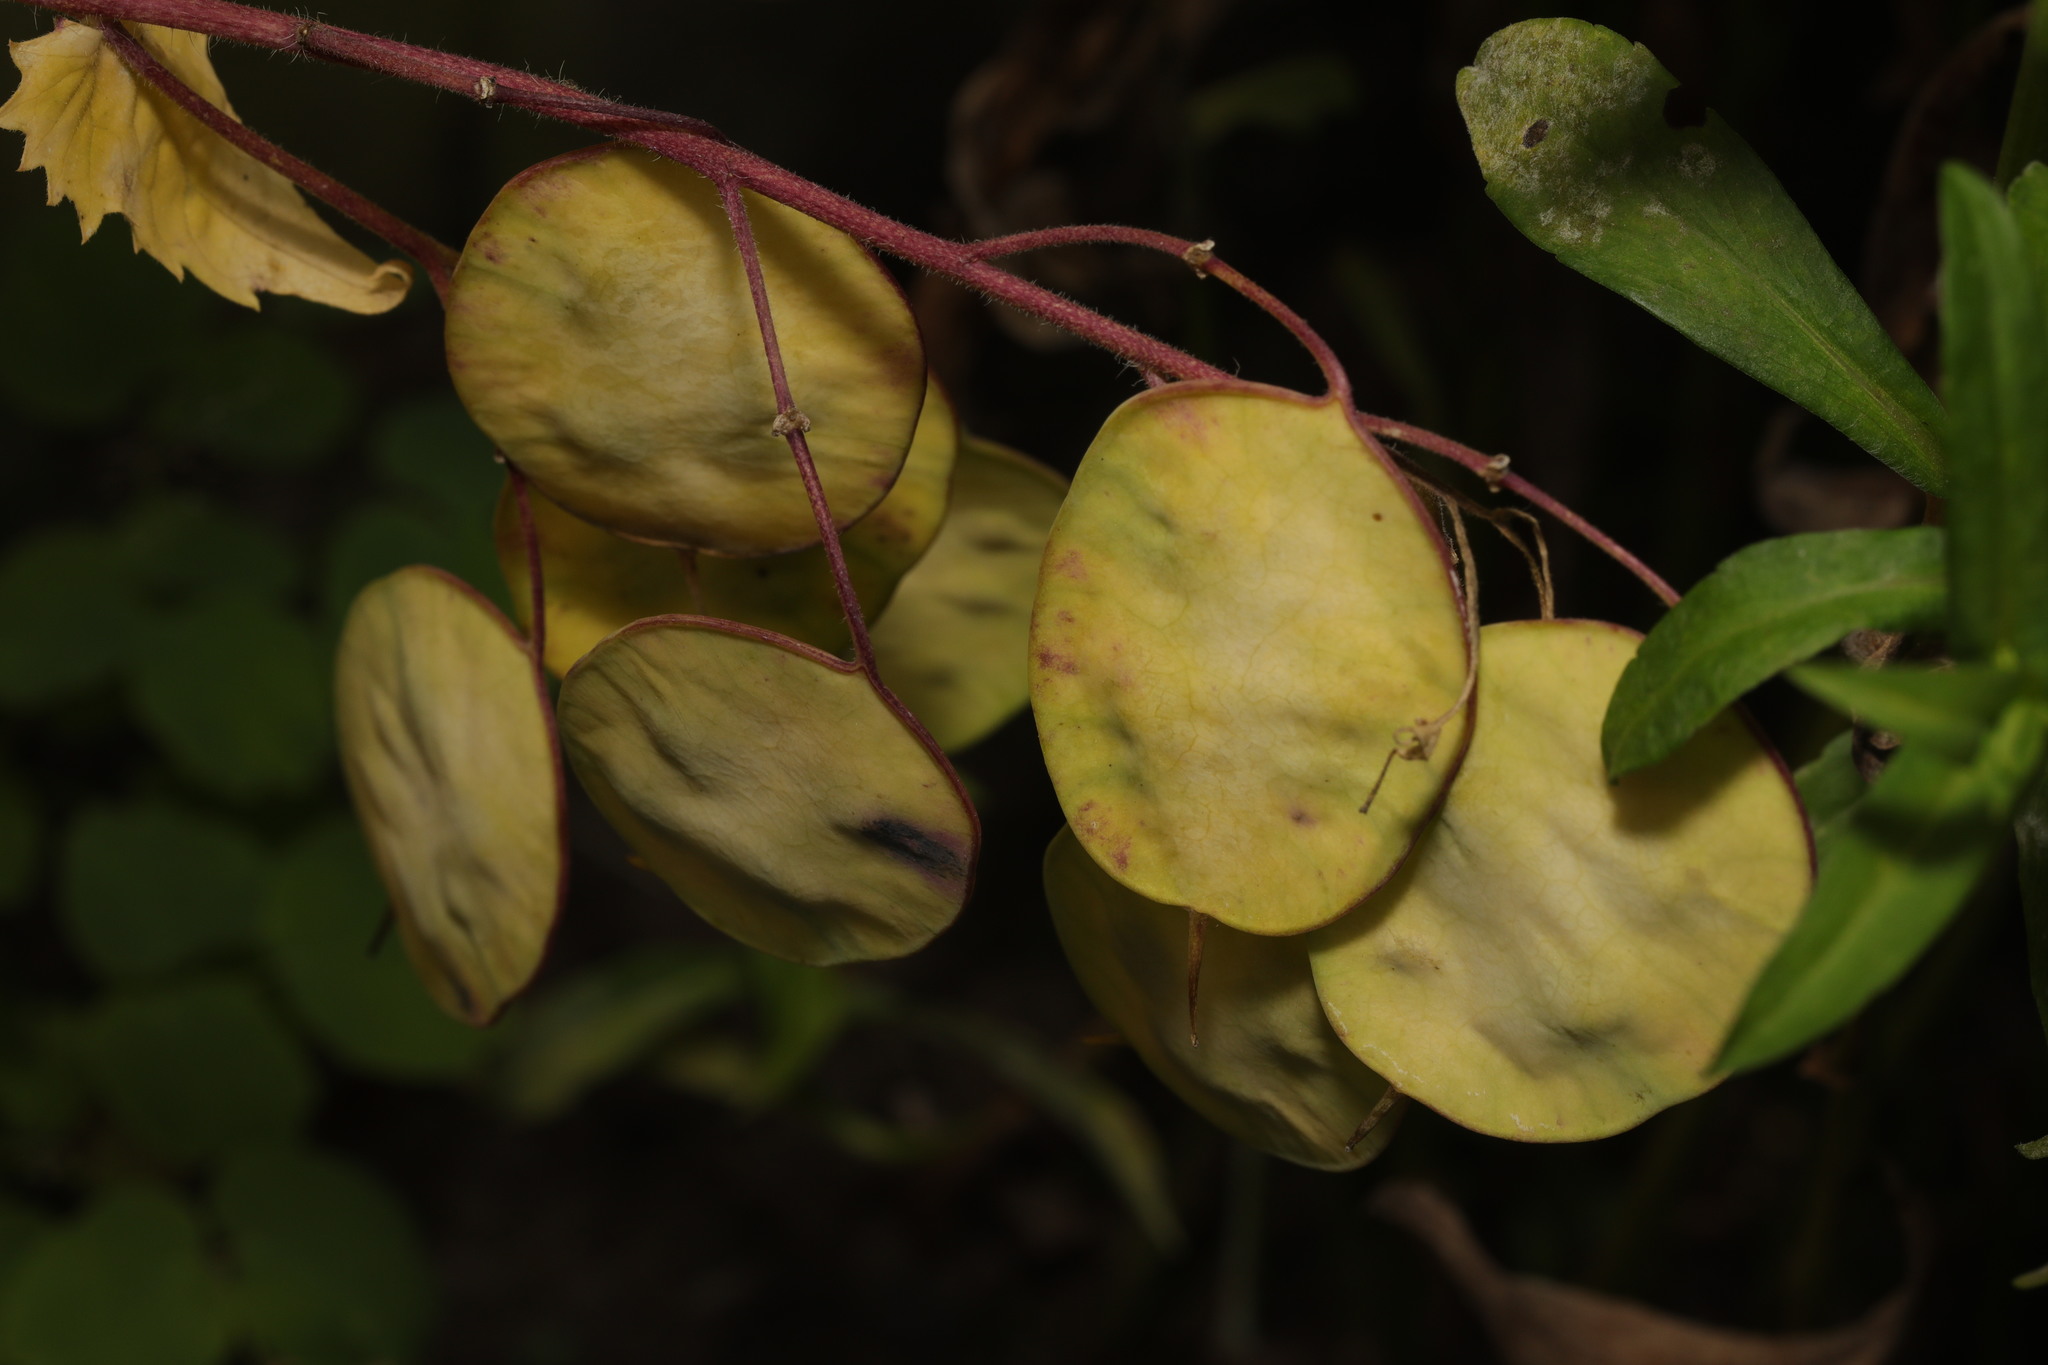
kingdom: Plantae
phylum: Tracheophyta
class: Magnoliopsida
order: Brassicales
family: Brassicaceae
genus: Lunaria
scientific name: Lunaria annua
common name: Honesty
